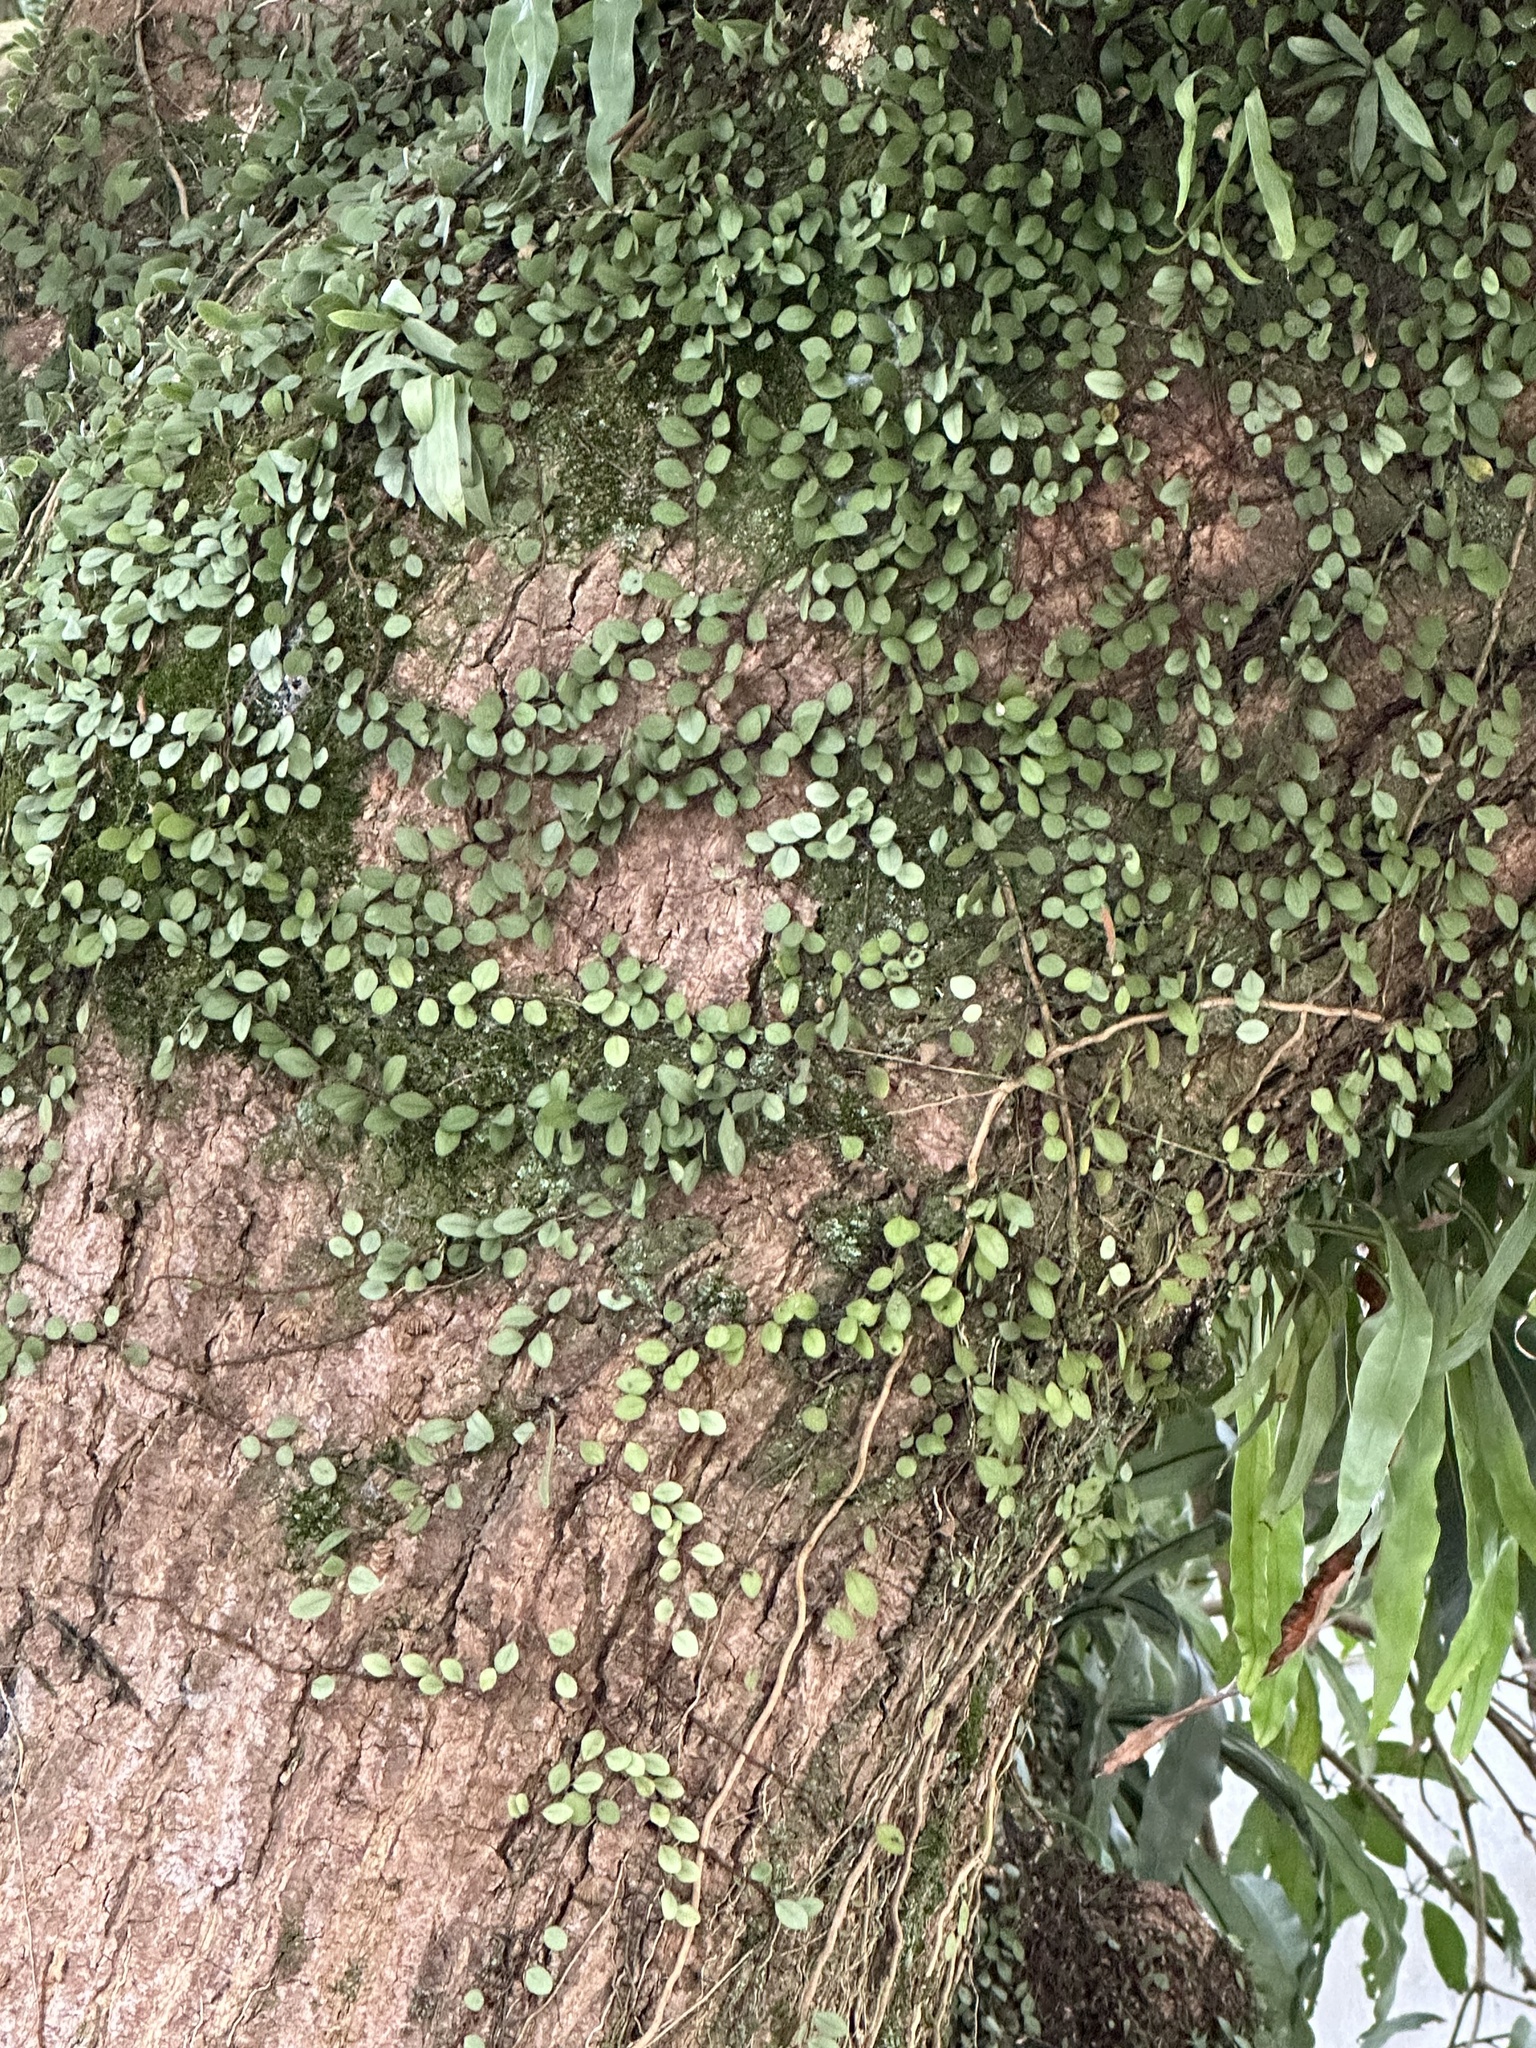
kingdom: Plantae
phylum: Tracheophyta
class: Polypodiopsida
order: Polypodiales
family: Polypodiaceae
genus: Lepisorus
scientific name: Lepisorus microphyllus
